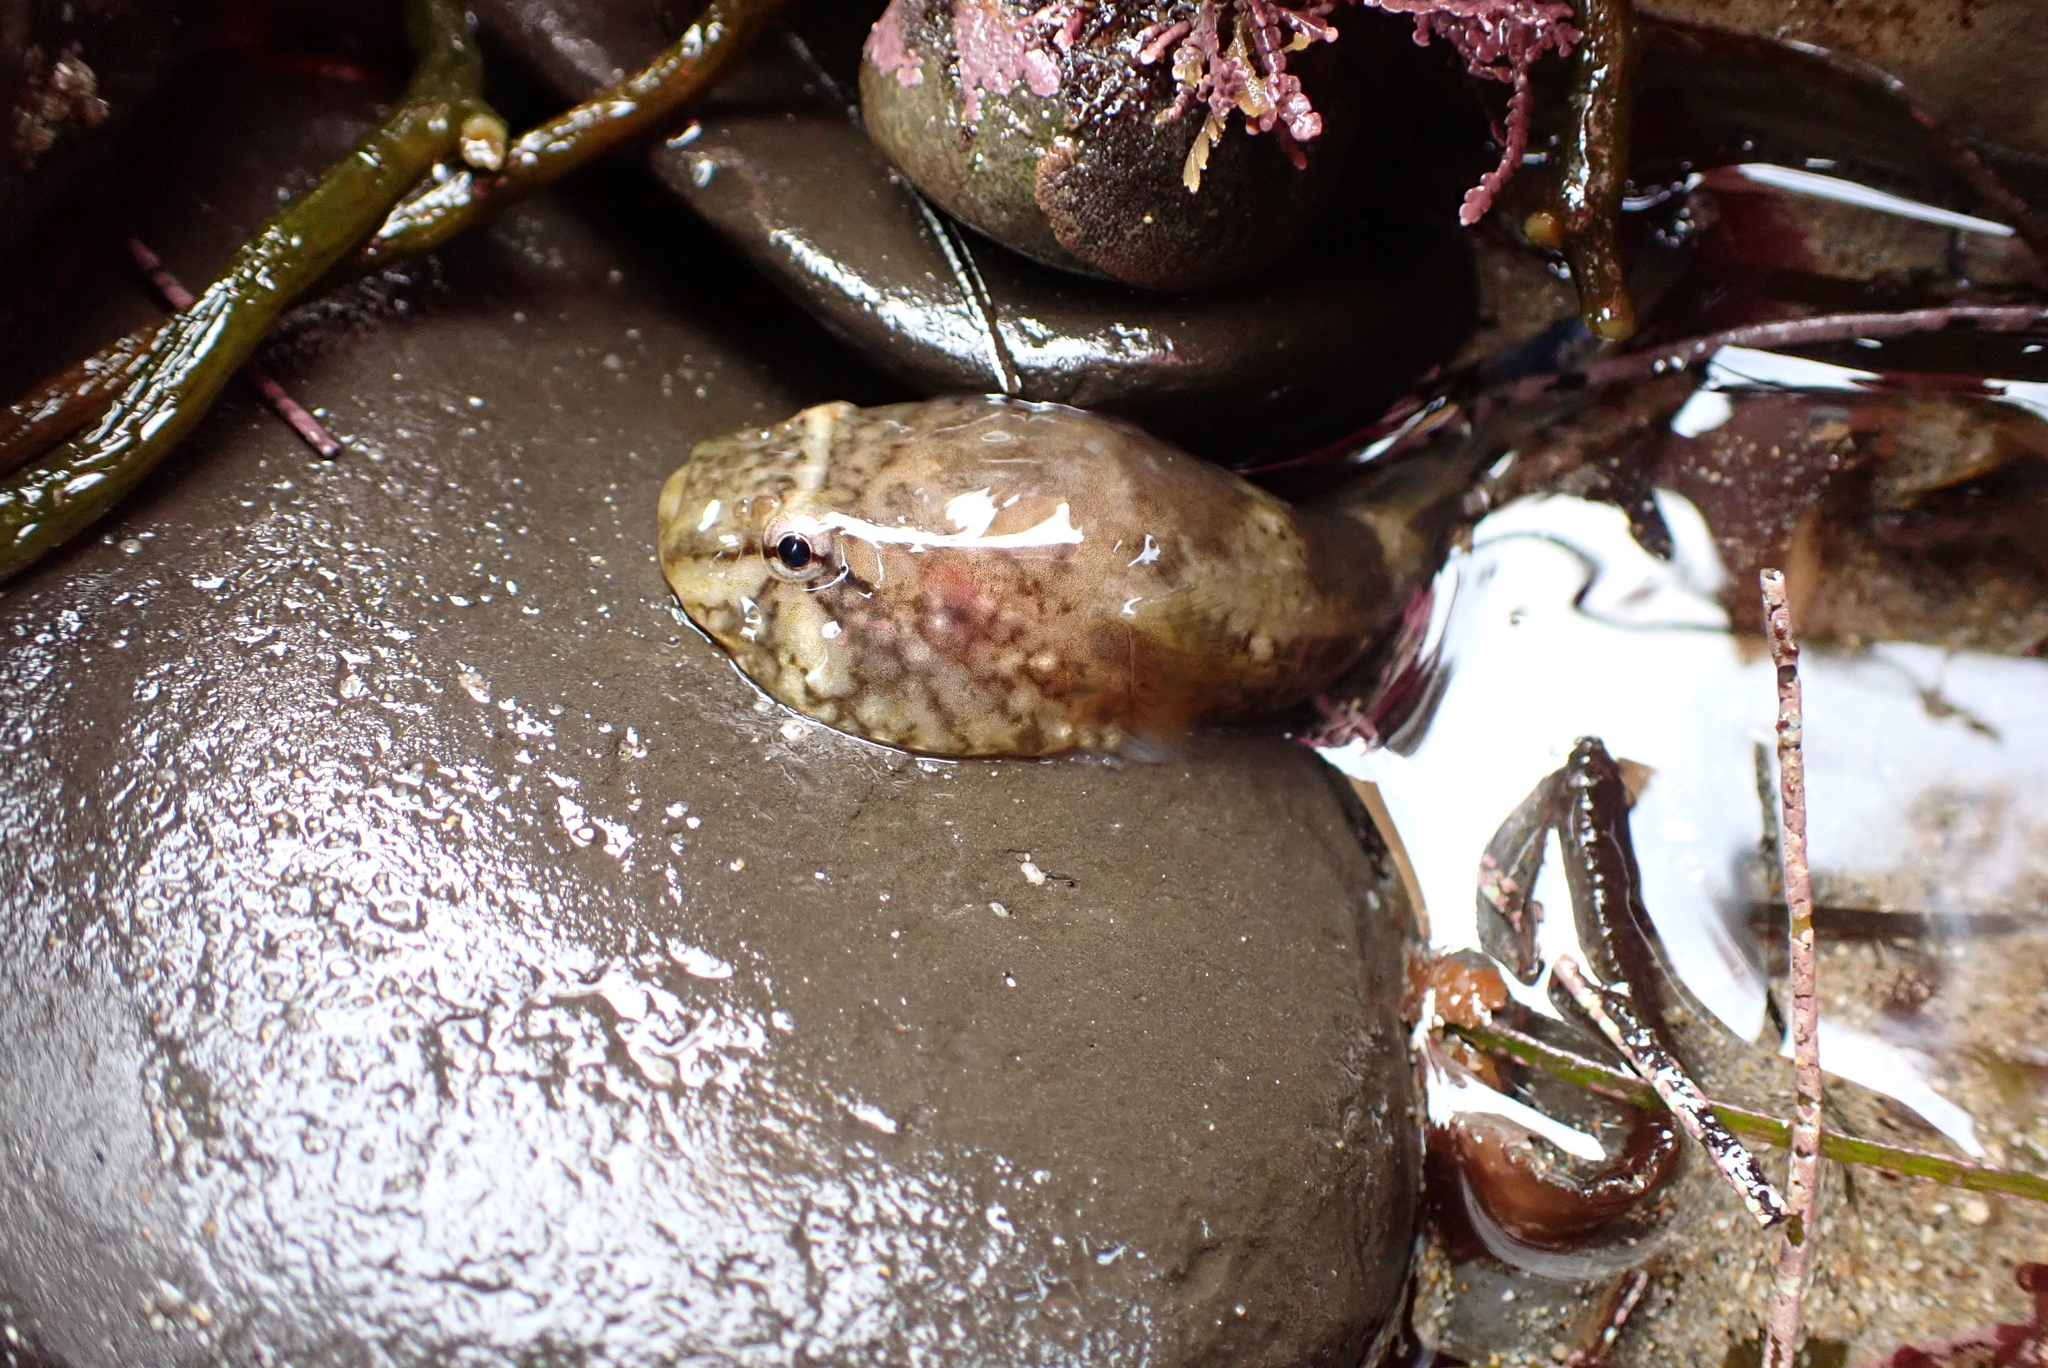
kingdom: Animalia
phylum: Chordata
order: Gobiesociformes
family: Gobiesocidae
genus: Gobiesox
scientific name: Gobiesox maeandricus
